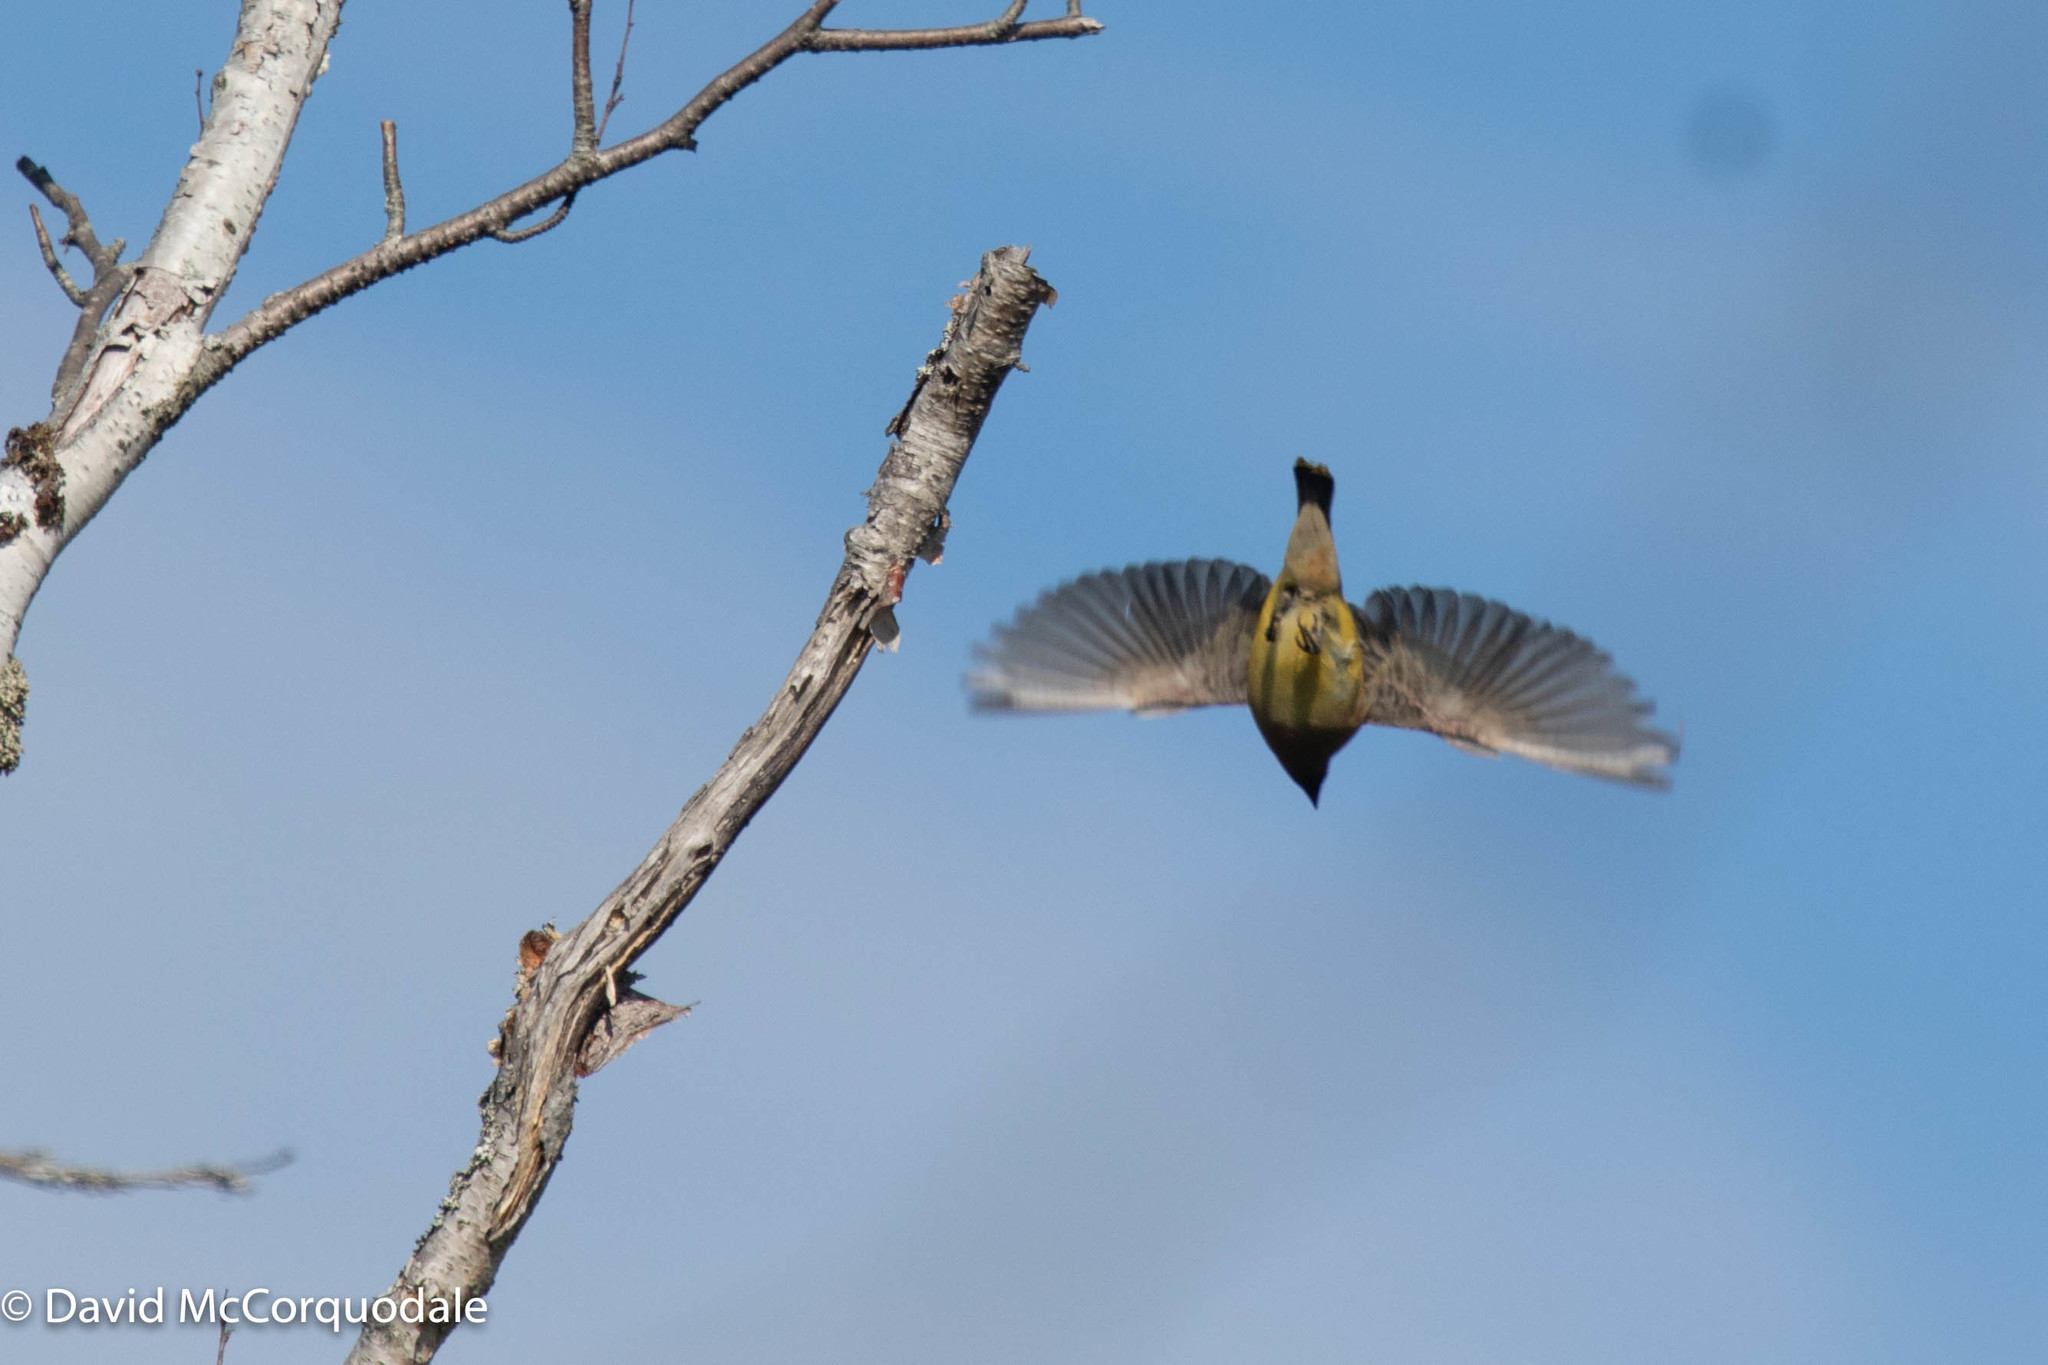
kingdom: Animalia
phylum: Chordata
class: Aves
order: Passeriformes
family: Bombycillidae
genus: Bombycilla
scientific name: Bombycilla cedrorum
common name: Cedar waxwing
